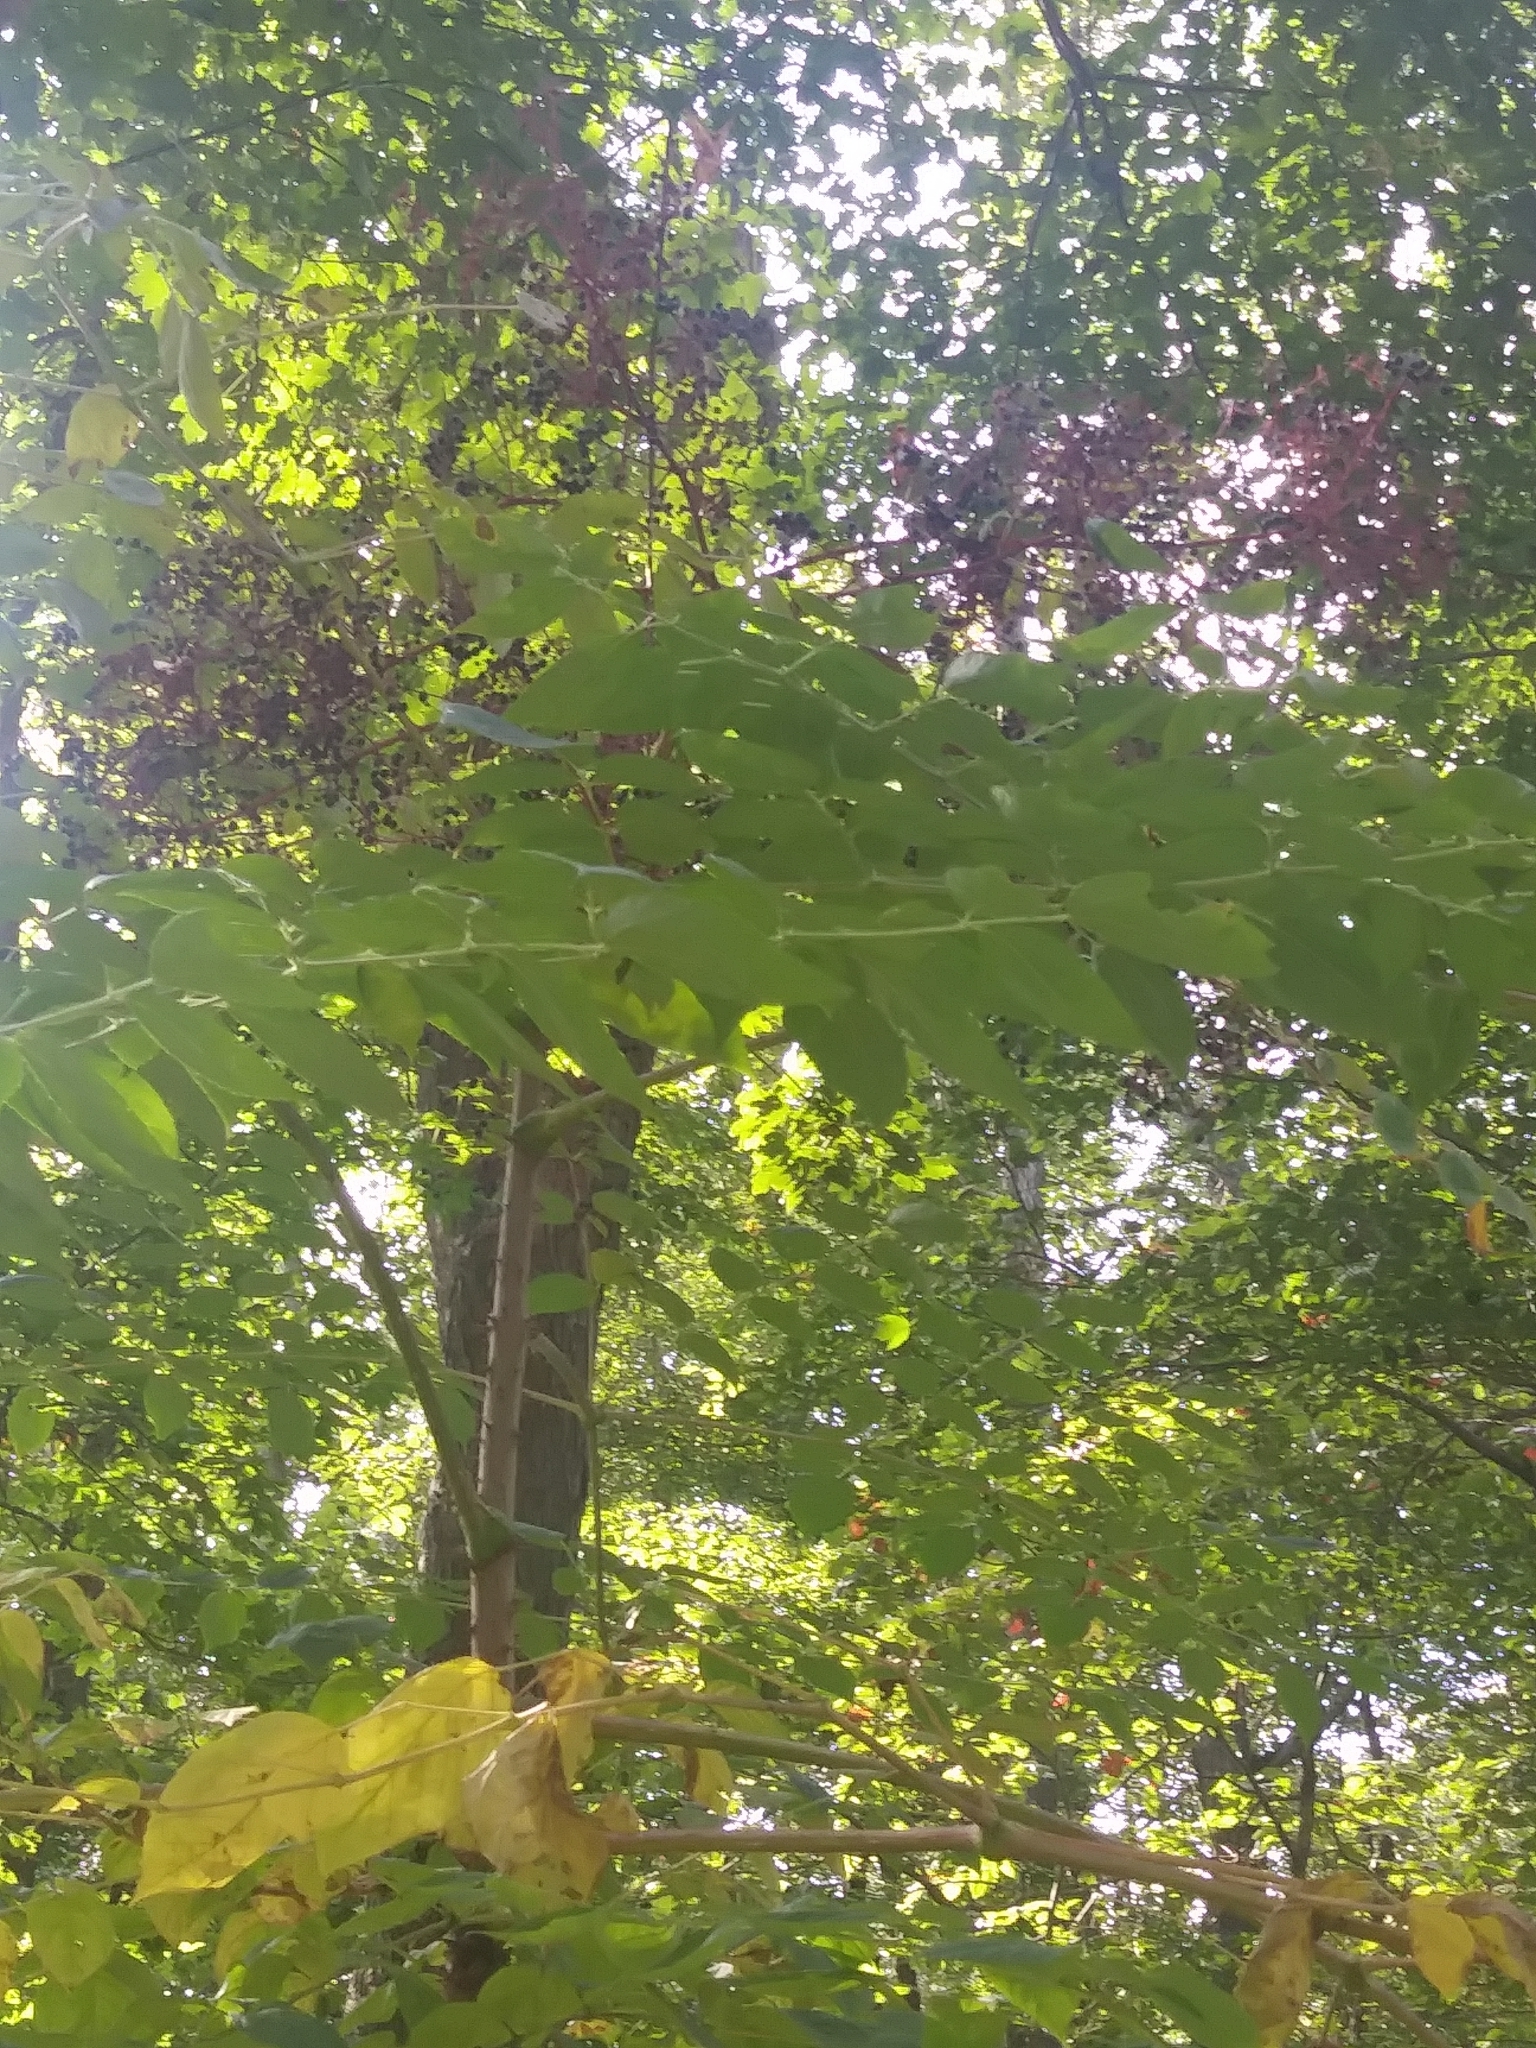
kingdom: Plantae
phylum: Tracheophyta
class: Magnoliopsida
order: Apiales
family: Araliaceae
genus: Aralia
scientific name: Aralia elata
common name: Japanese angelica-tree
